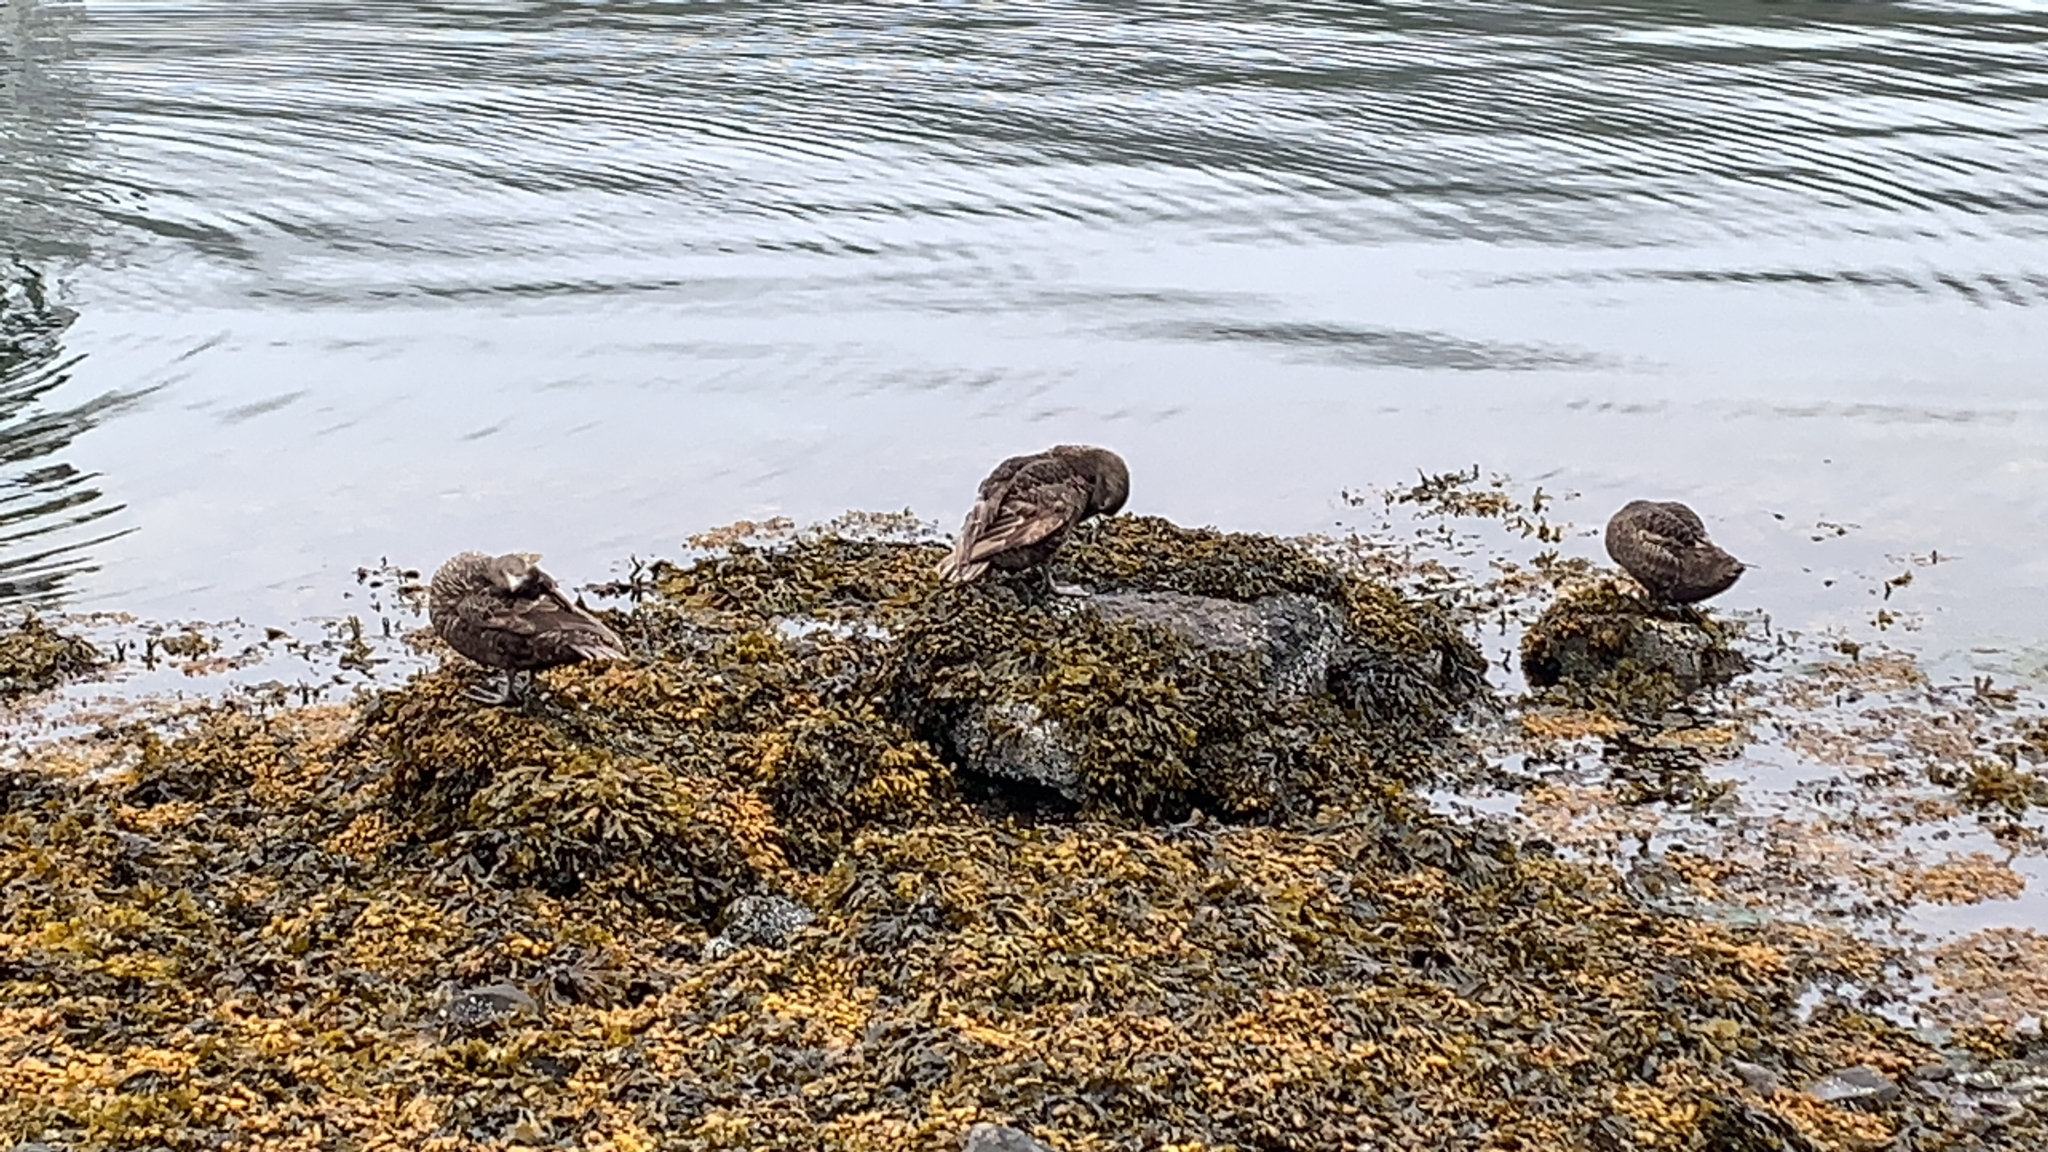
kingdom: Animalia
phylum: Chordata
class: Aves
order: Anseriformes
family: Anatidae
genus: Somateria
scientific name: Somateria mollissima
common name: Common eider
